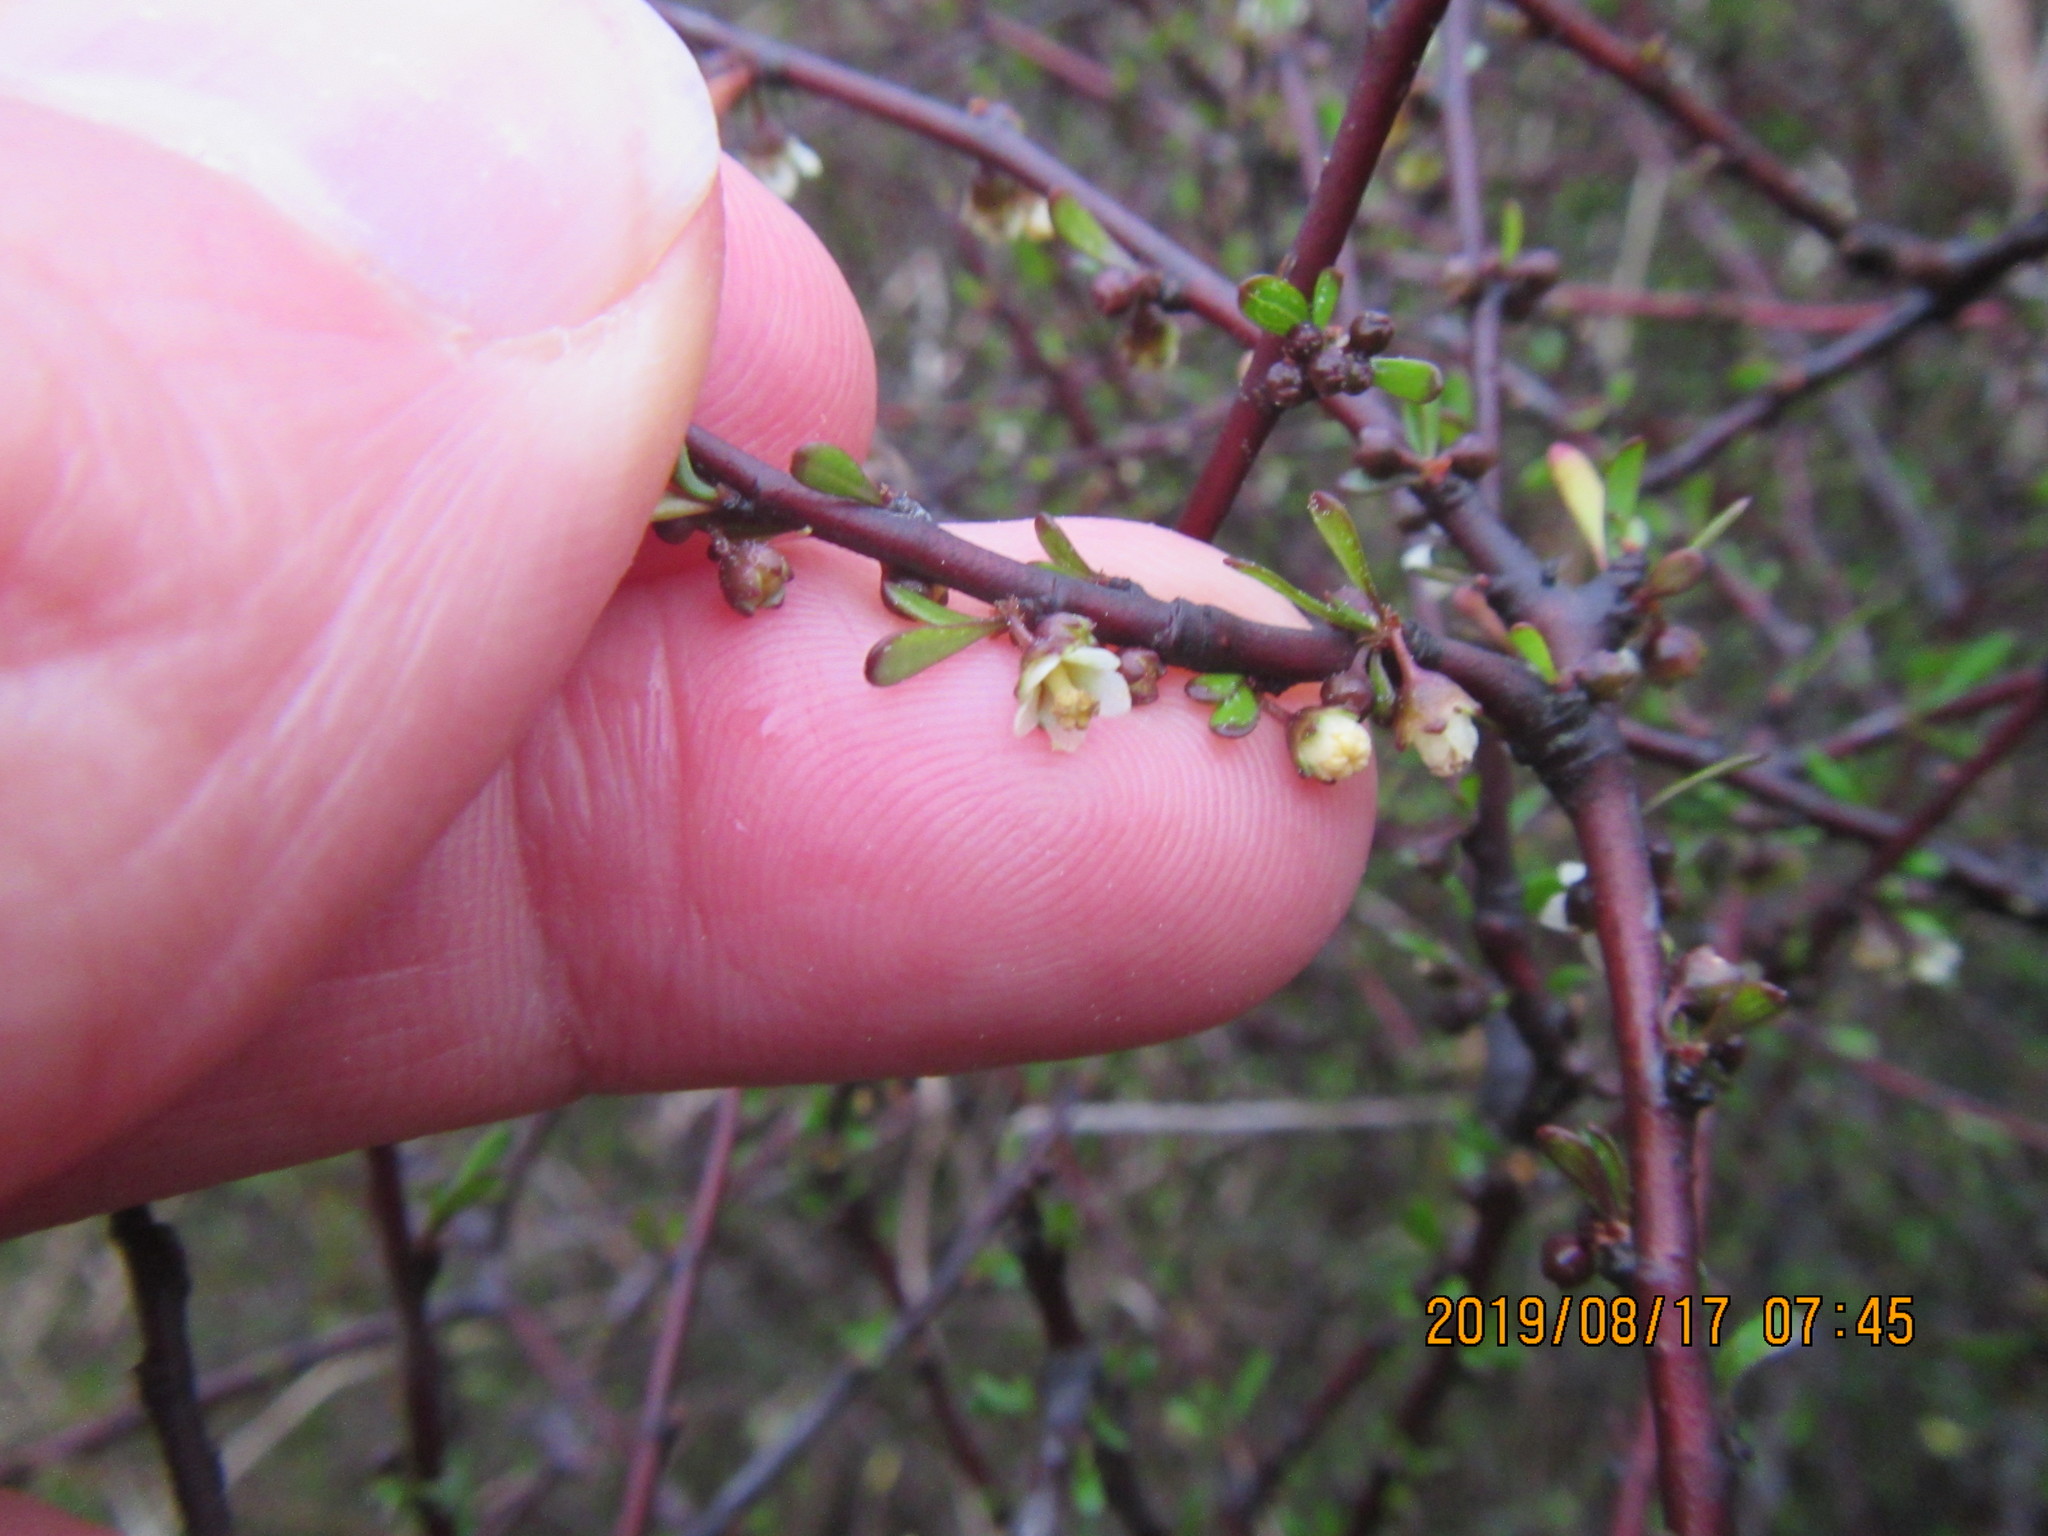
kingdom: Plantae
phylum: Tracheophyta
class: Magnoliopsida
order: Malvales
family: Malvaceae
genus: Plagianthus
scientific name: Plagianthus divaricatus
